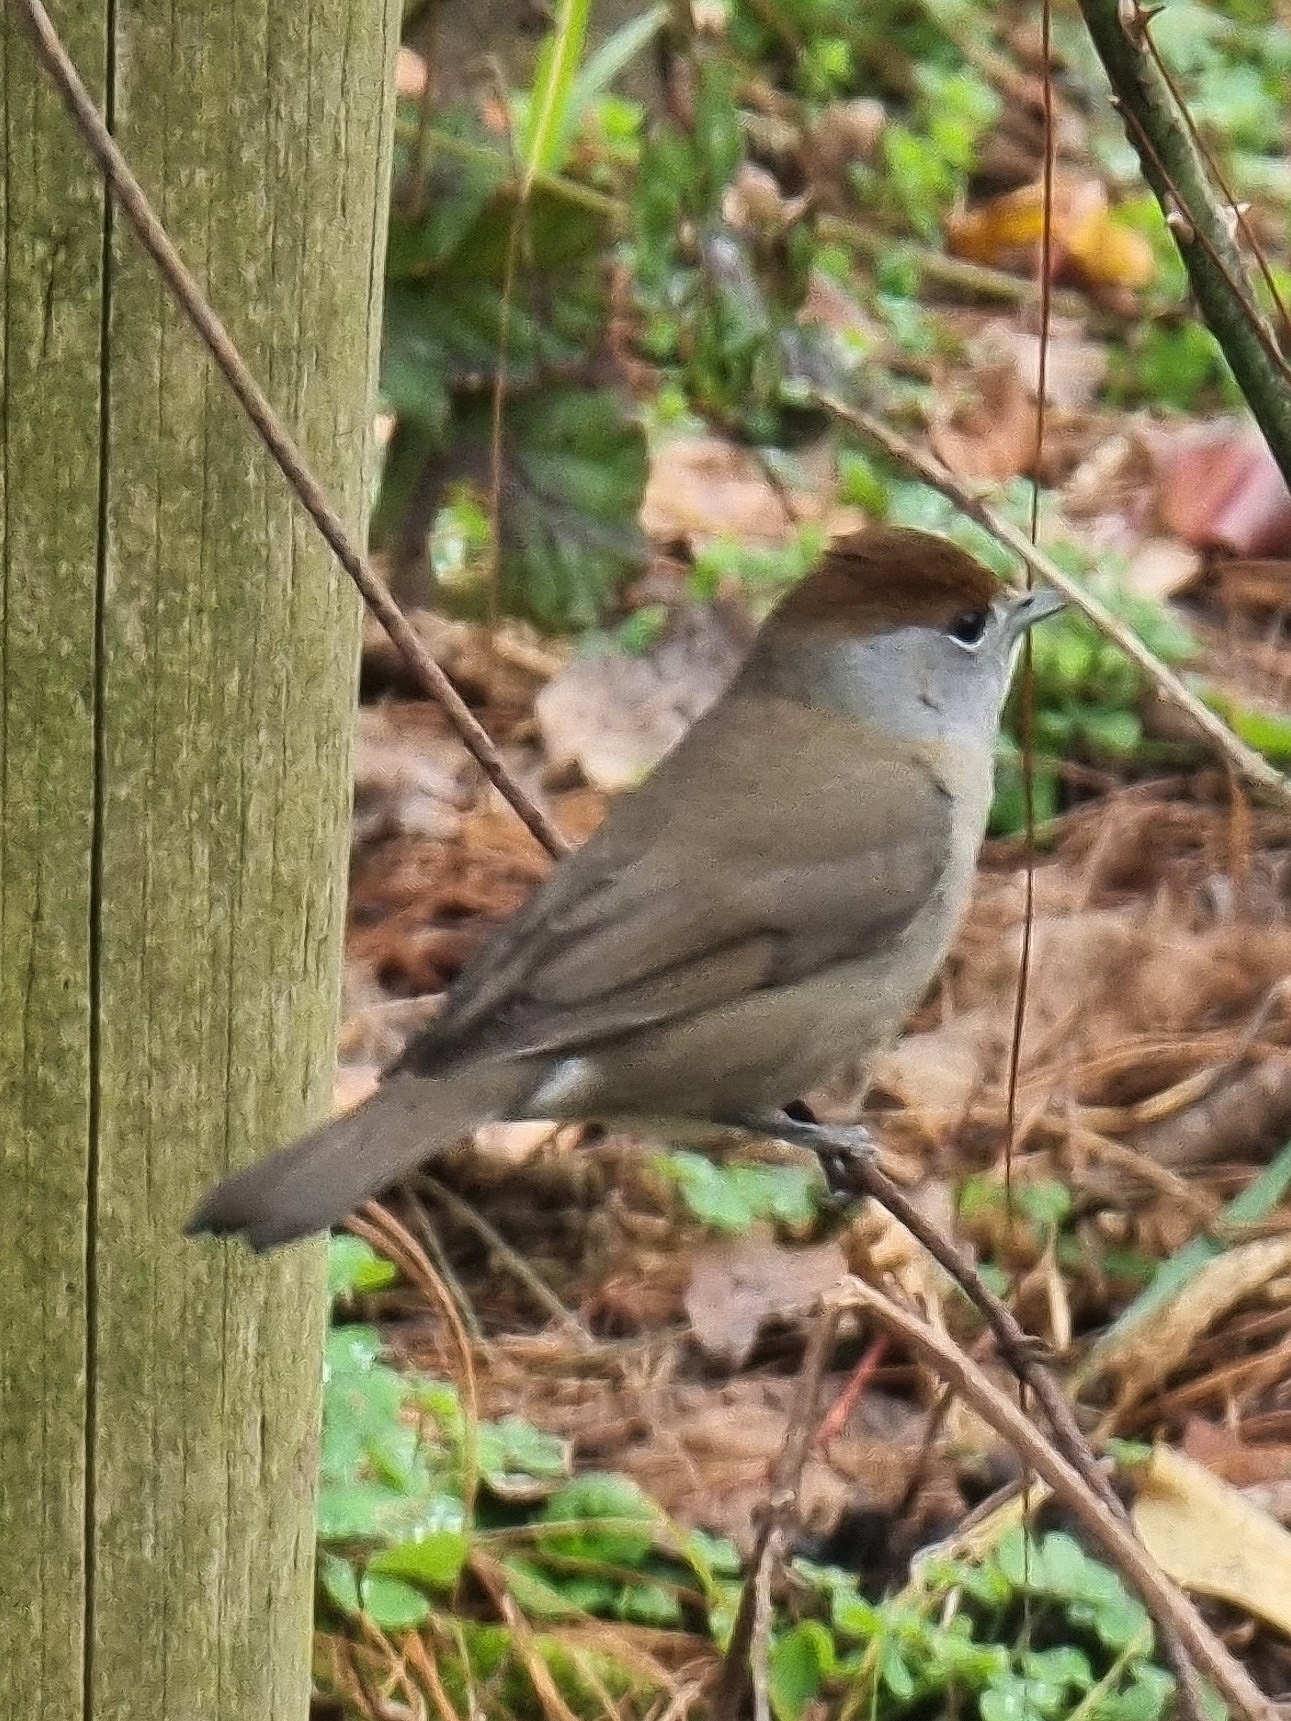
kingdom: Animalia
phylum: Chordata
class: Aves
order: Passeriformes
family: Sylviidae
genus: Sylvia
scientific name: Sylvia atricapilla
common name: Eurasian blackcap
